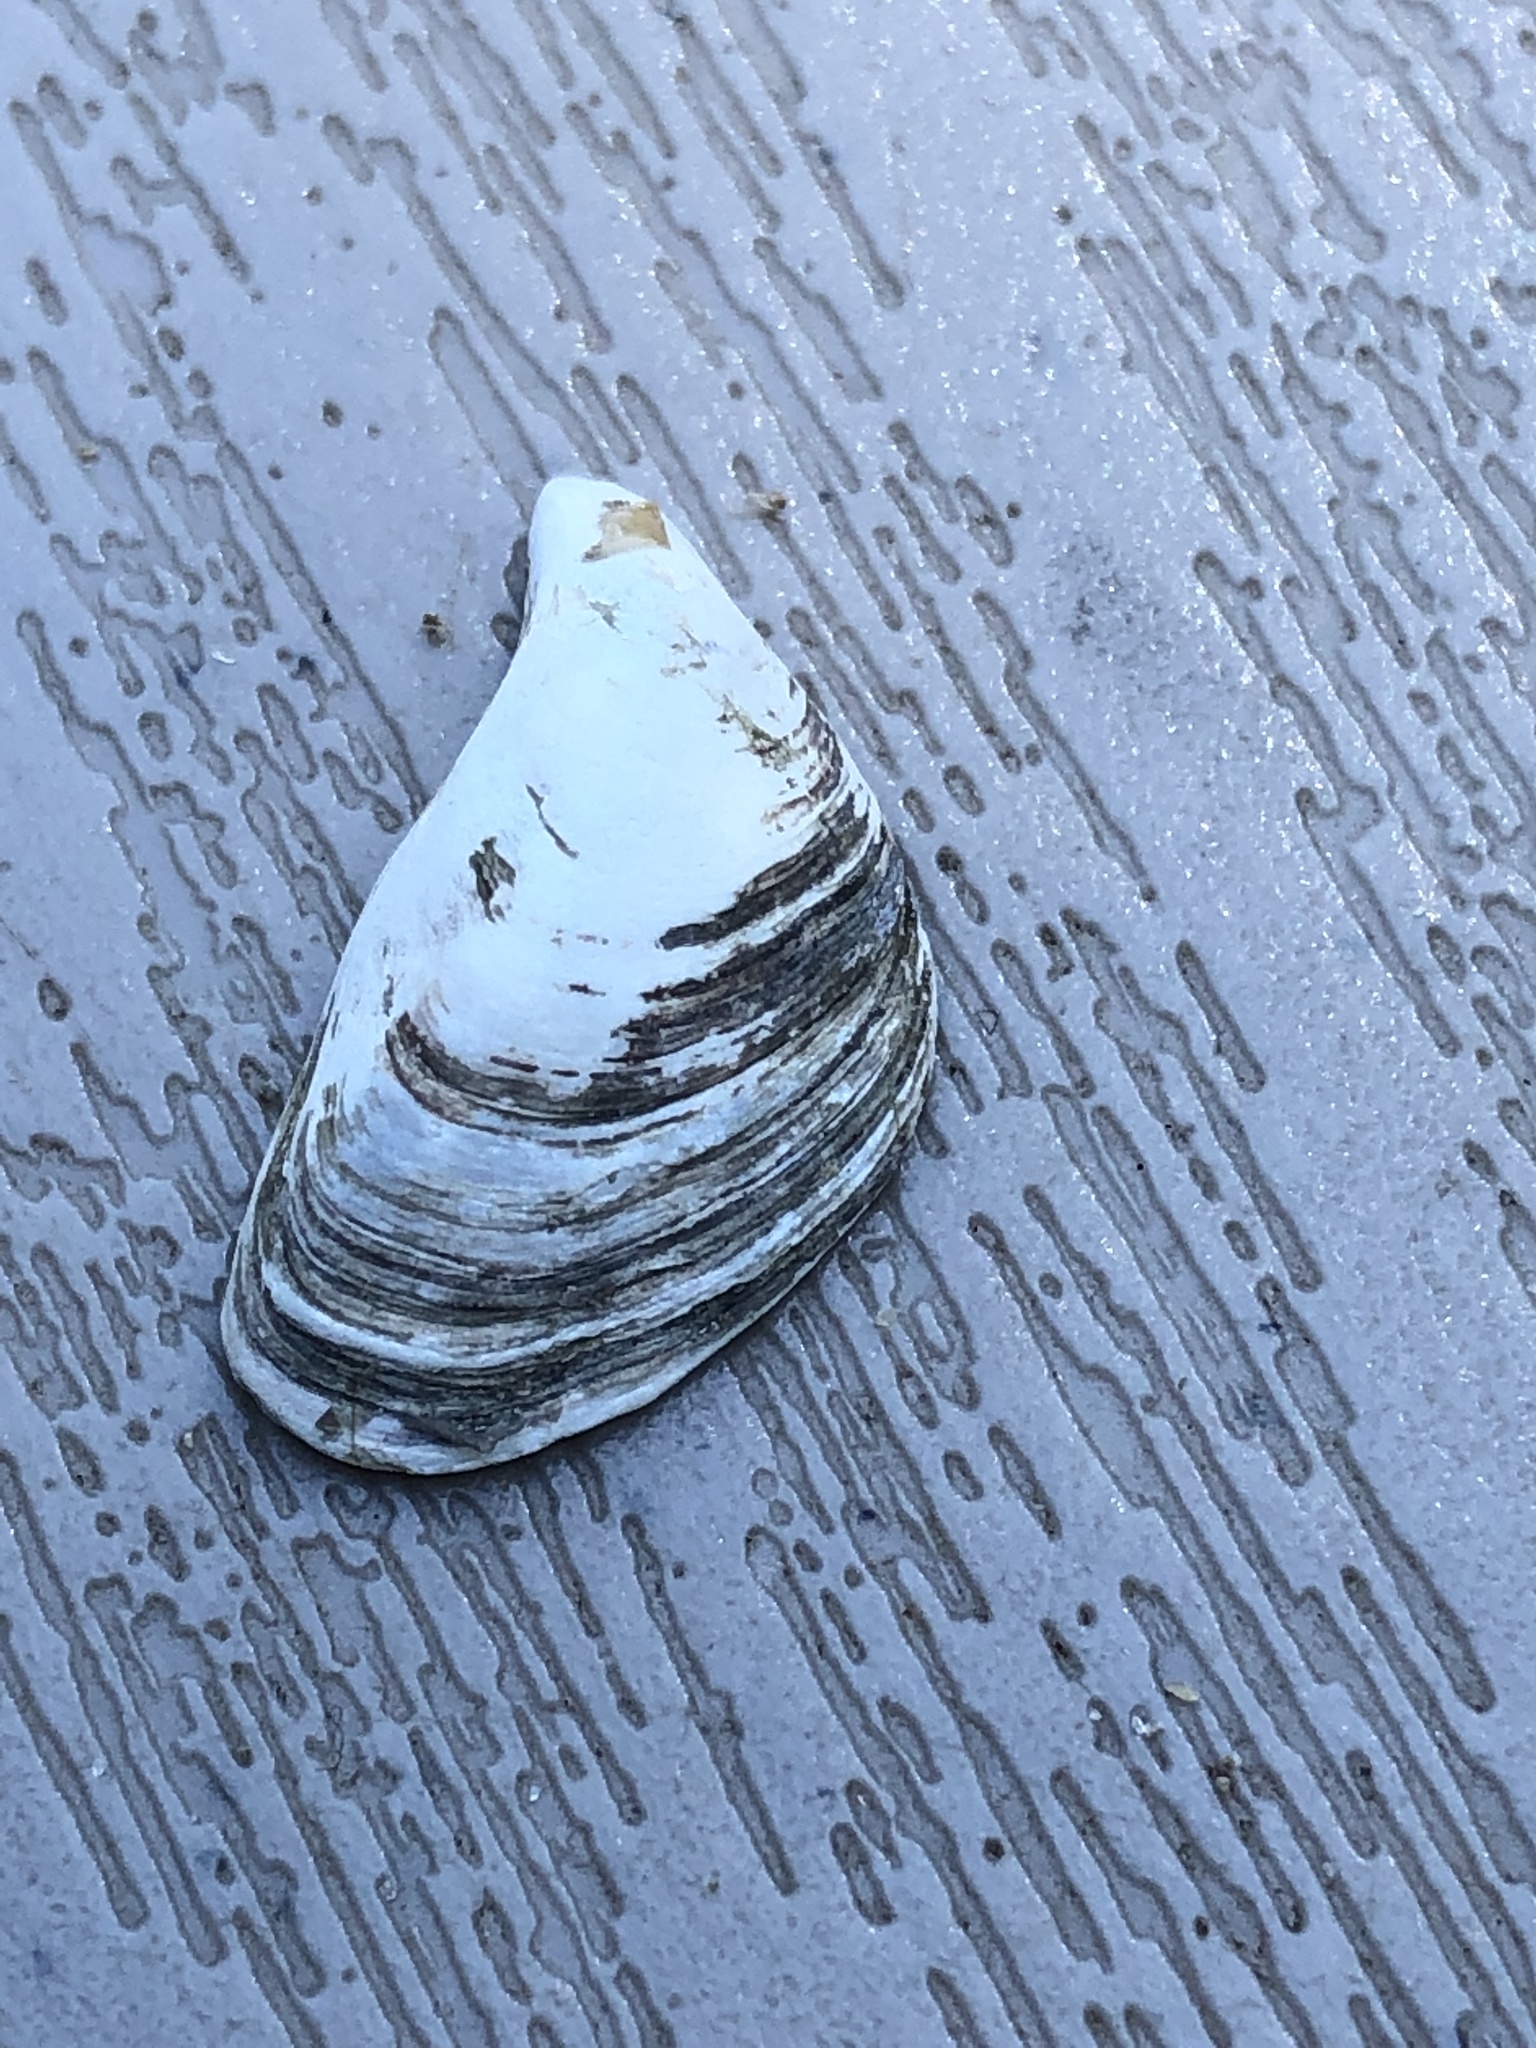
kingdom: Animalia
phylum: Mollusca
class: Bivalvia
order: Myida
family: Dreissenidae
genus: Dreissena
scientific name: Dreissena bugensis
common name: Quagga mussel
